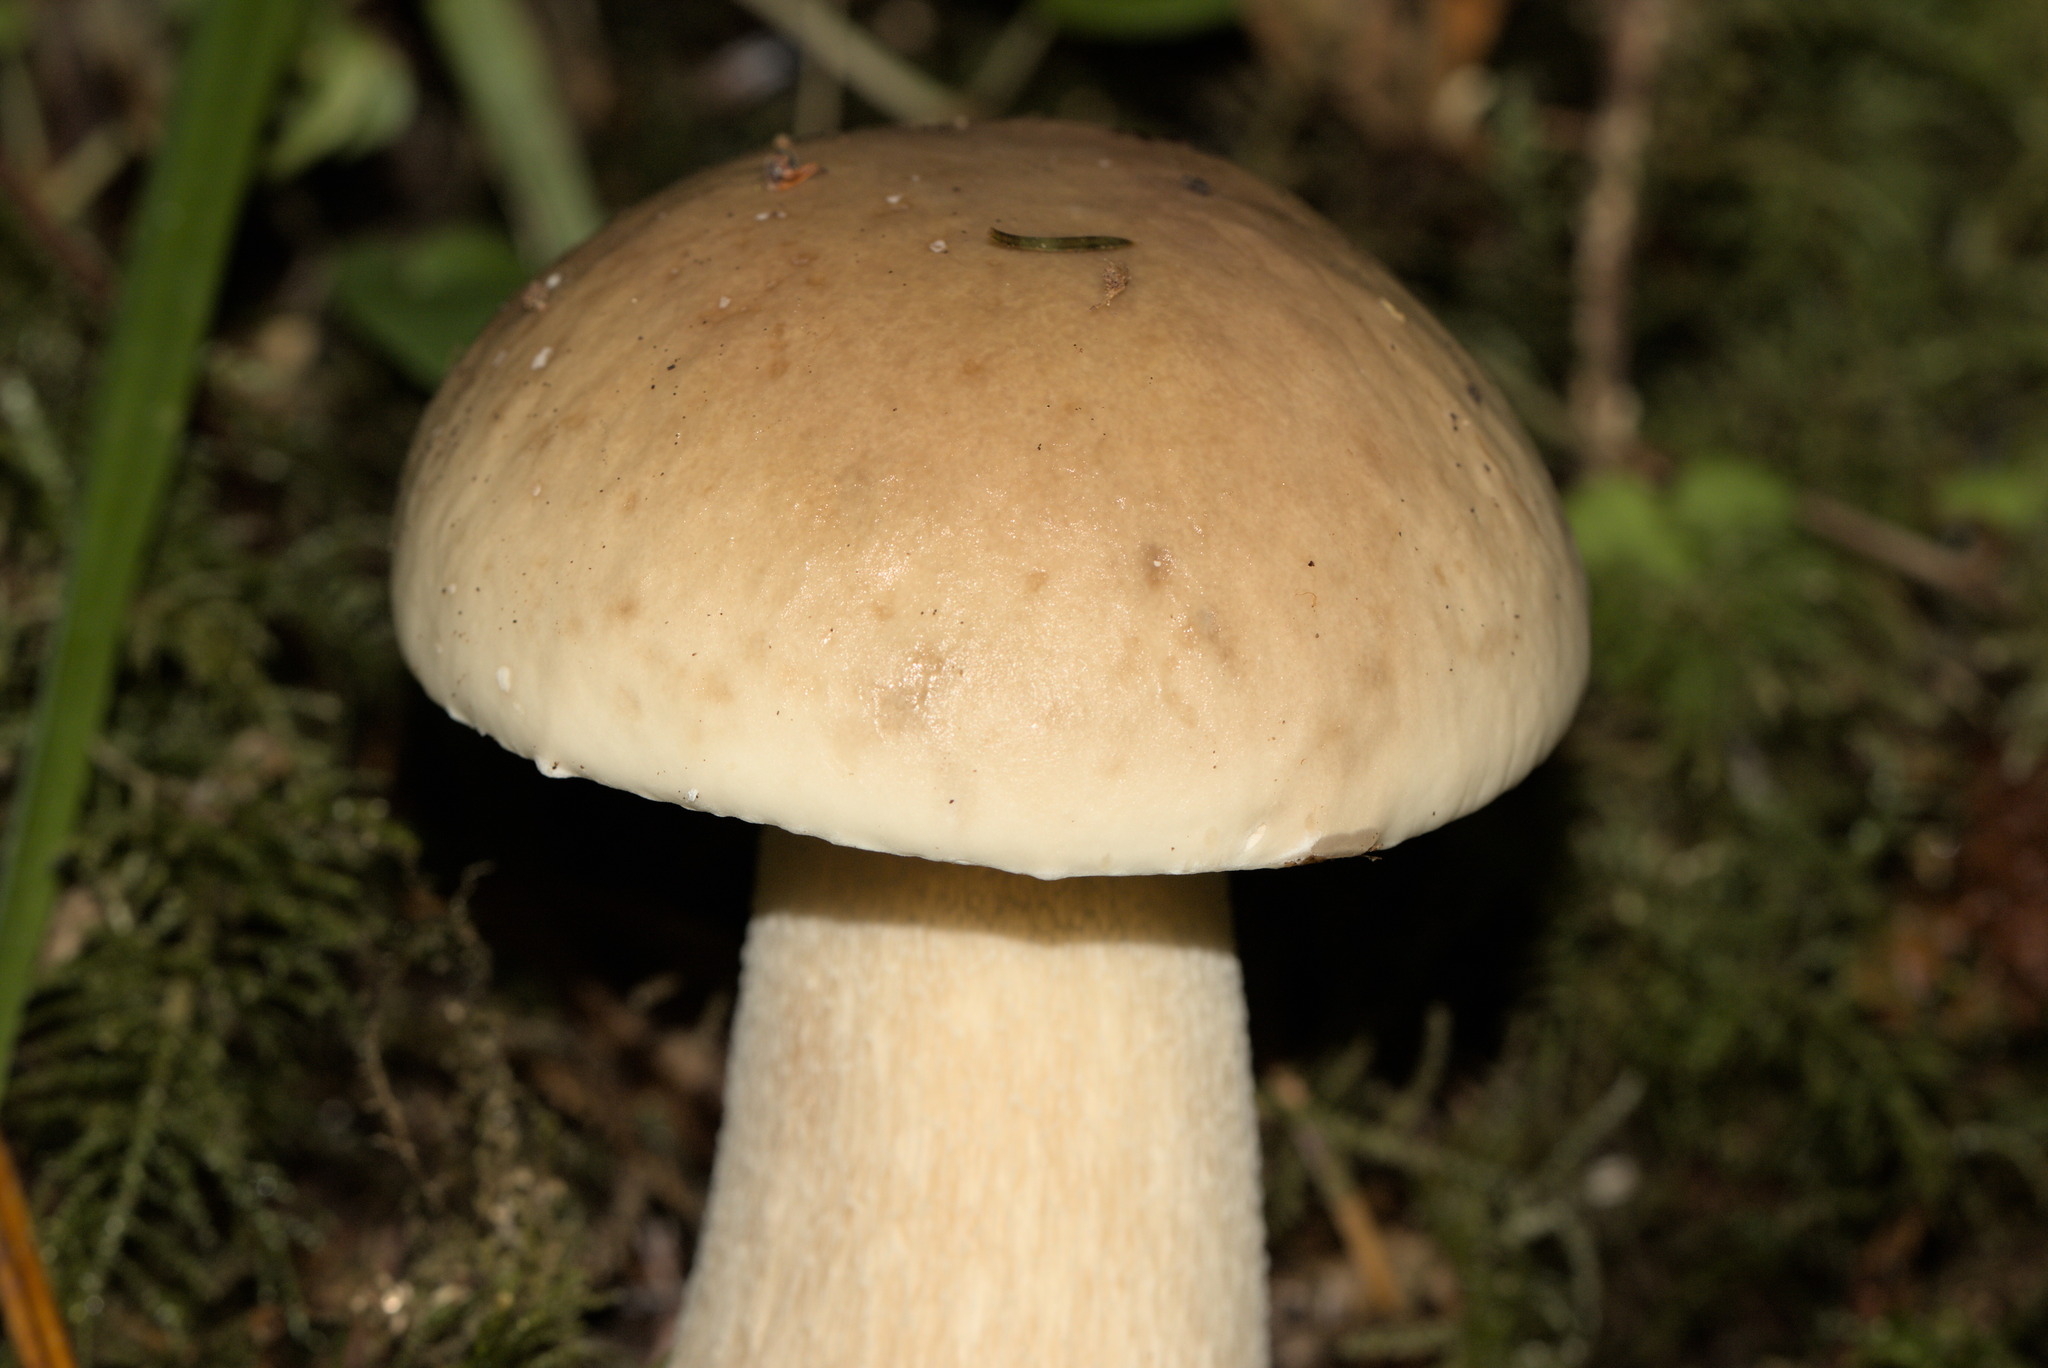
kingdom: Fungi
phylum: Basidiomycota
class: Agaricomycetes
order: Boletales
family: Boletaceae
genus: Boletus
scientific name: Boletus edulis
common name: Cep
